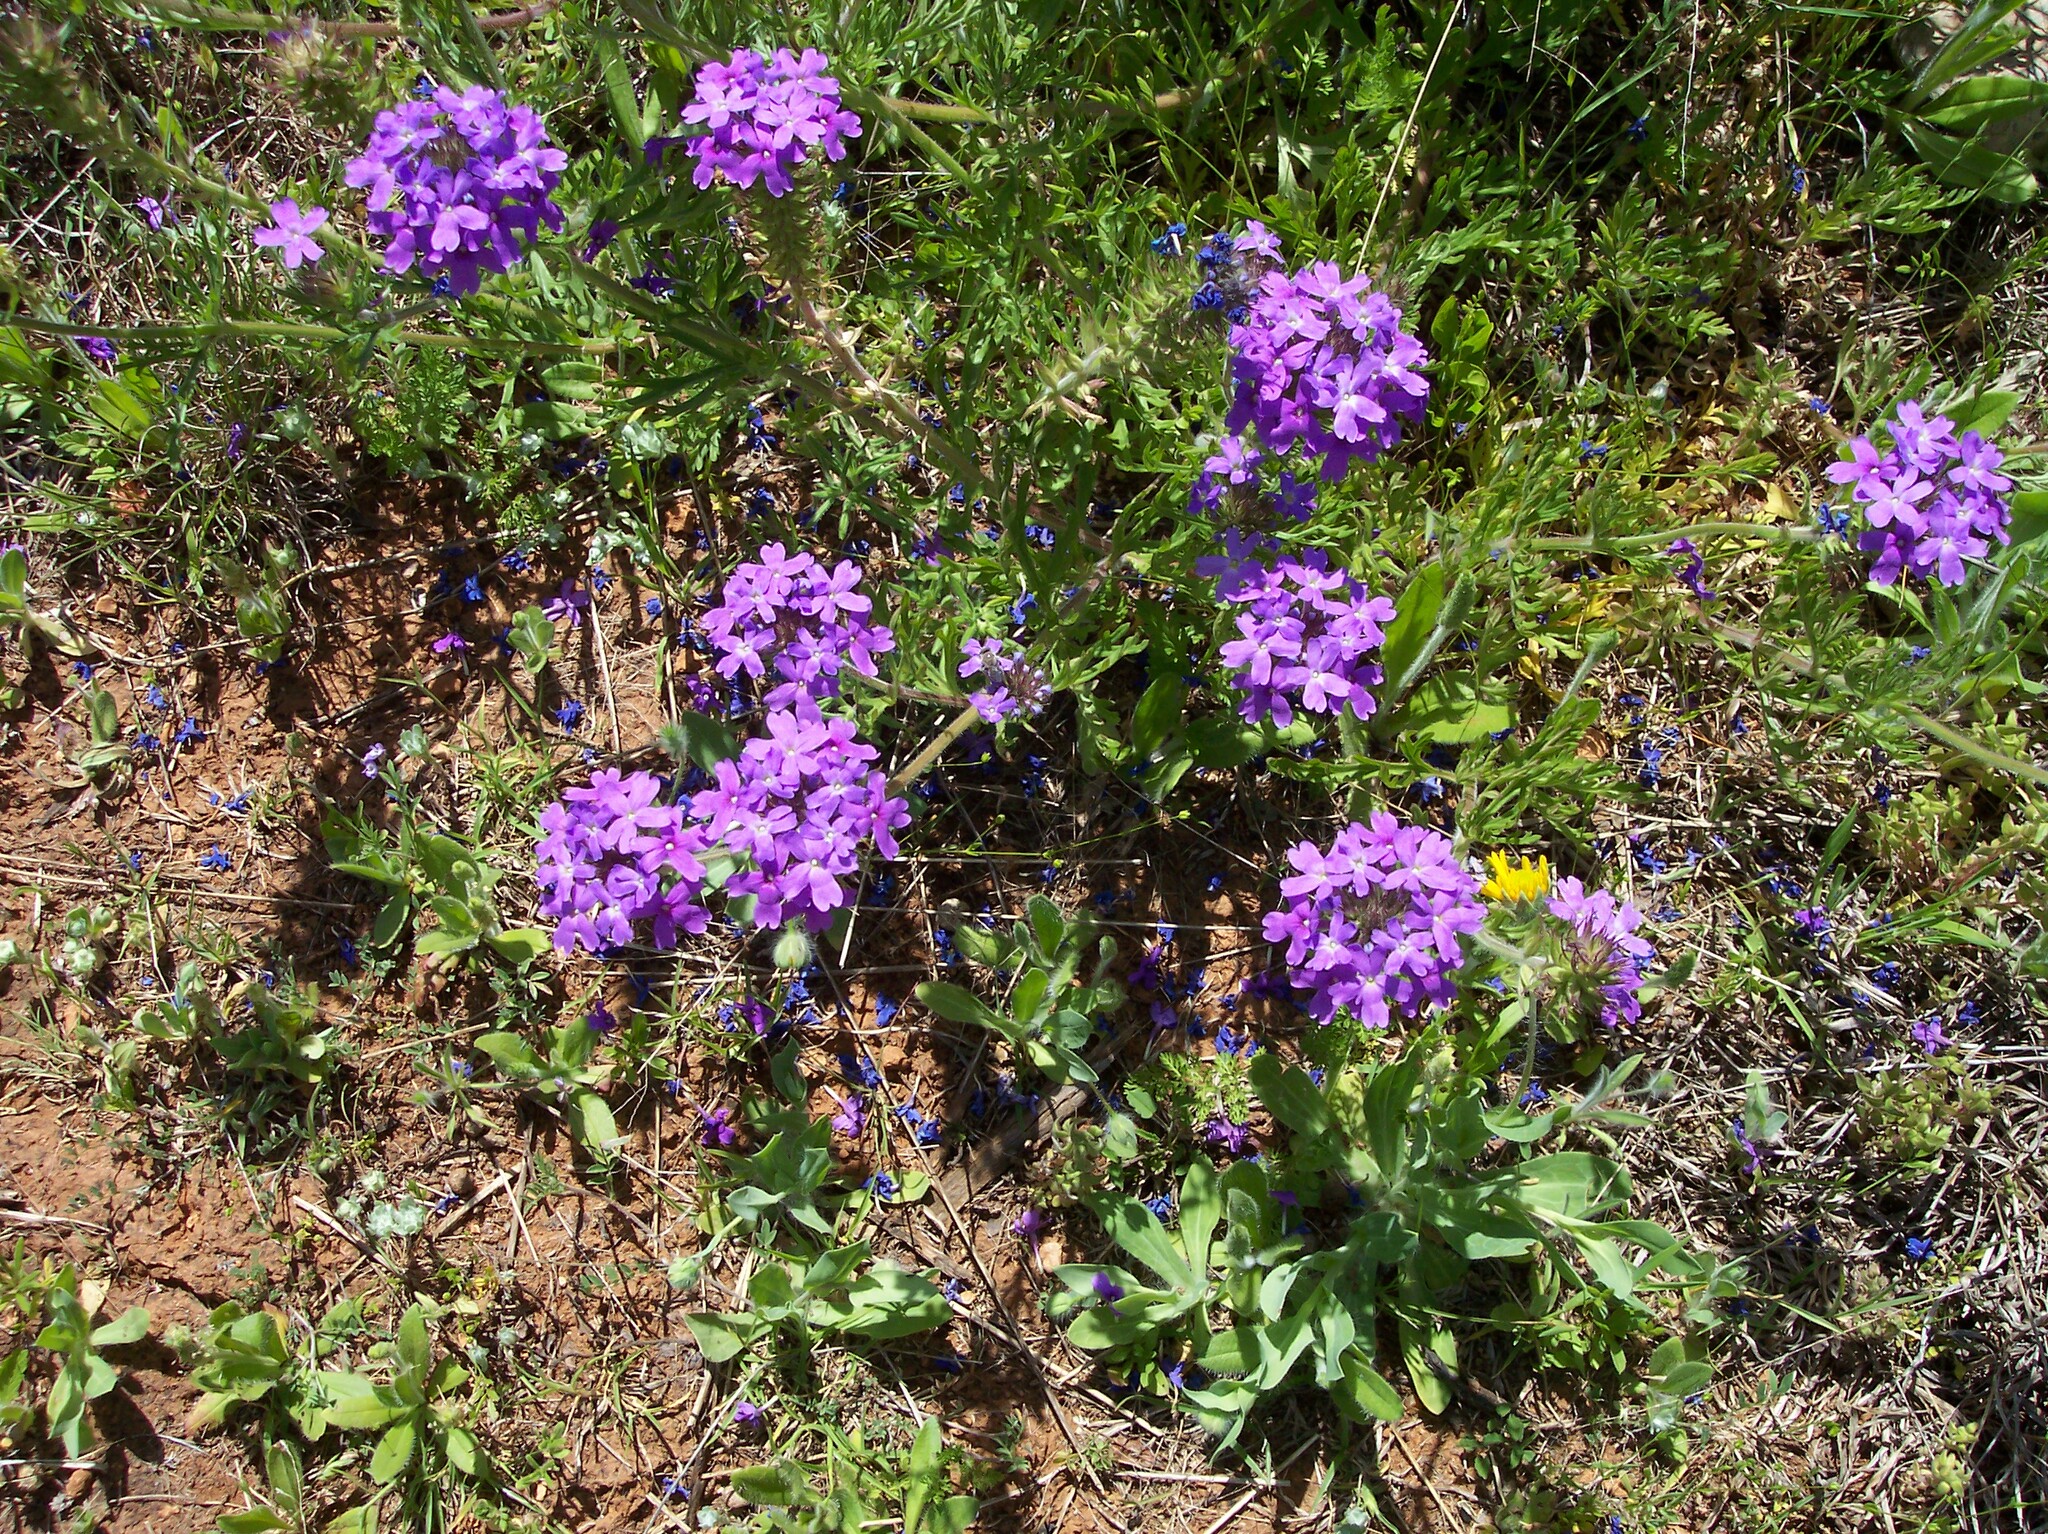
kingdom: Plantae
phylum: Tracheophyta
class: Magnoliopsida
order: Lamiales
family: Verbenaceae
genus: Verbena
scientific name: Verbena bipinnatifida
